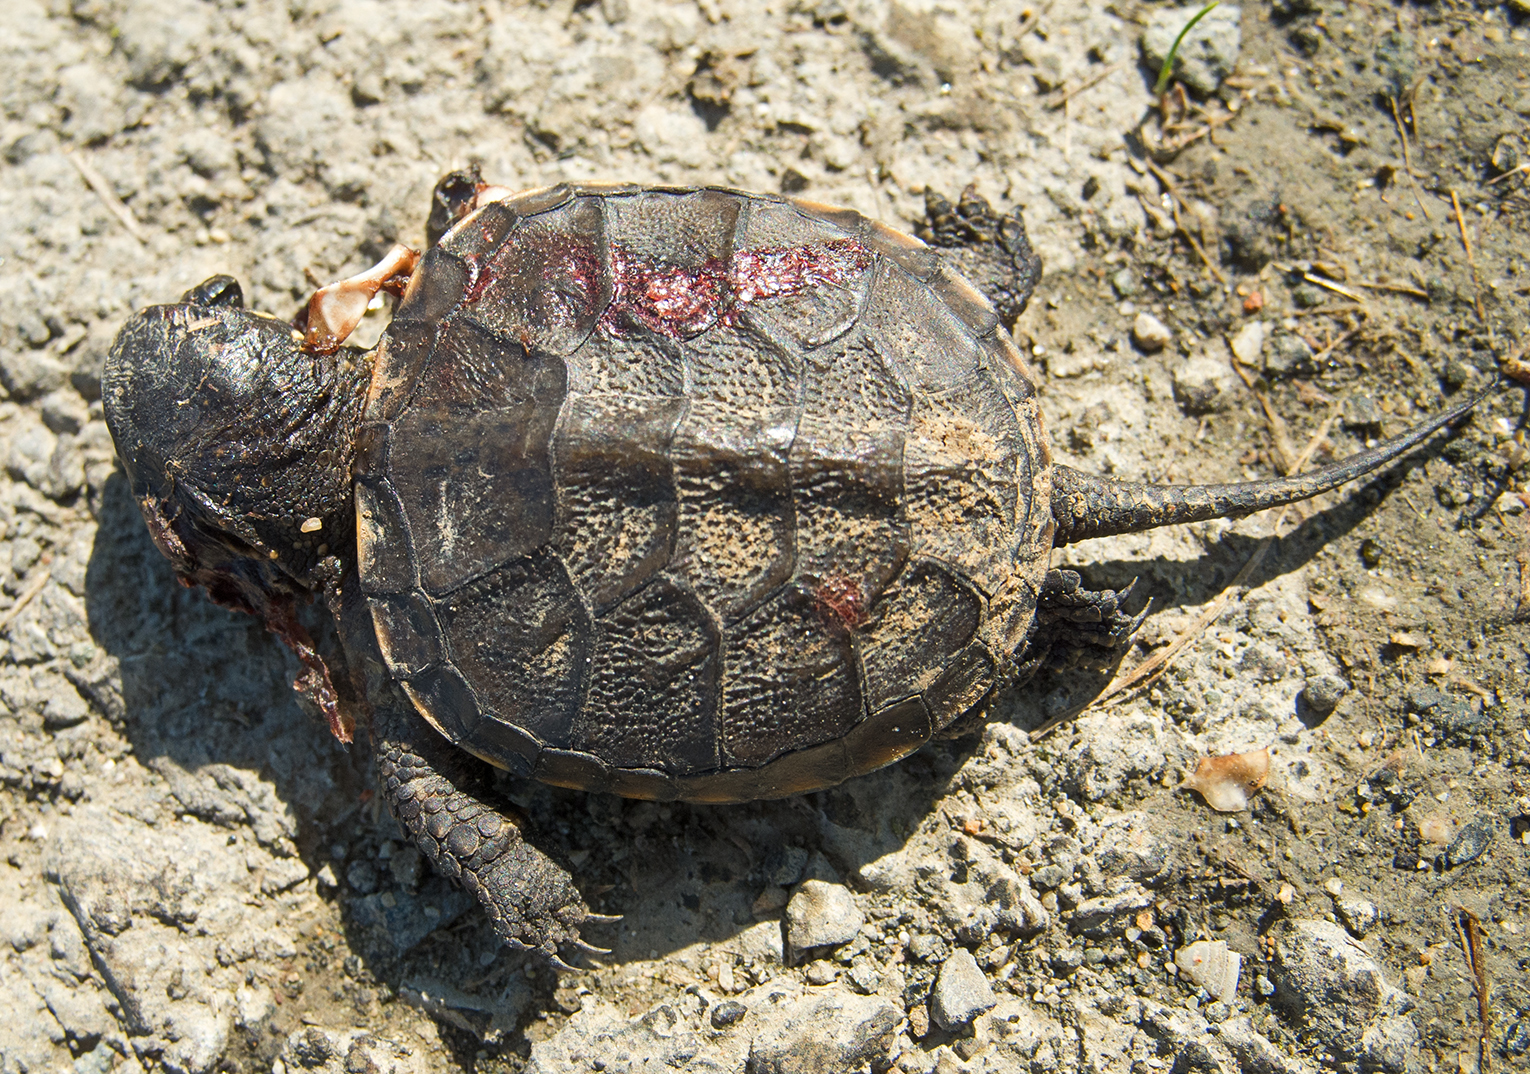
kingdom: Animalia
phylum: Chordata
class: Testudines
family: Emydidae
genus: Emys
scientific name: Emys orbicularis
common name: European pond turtle
